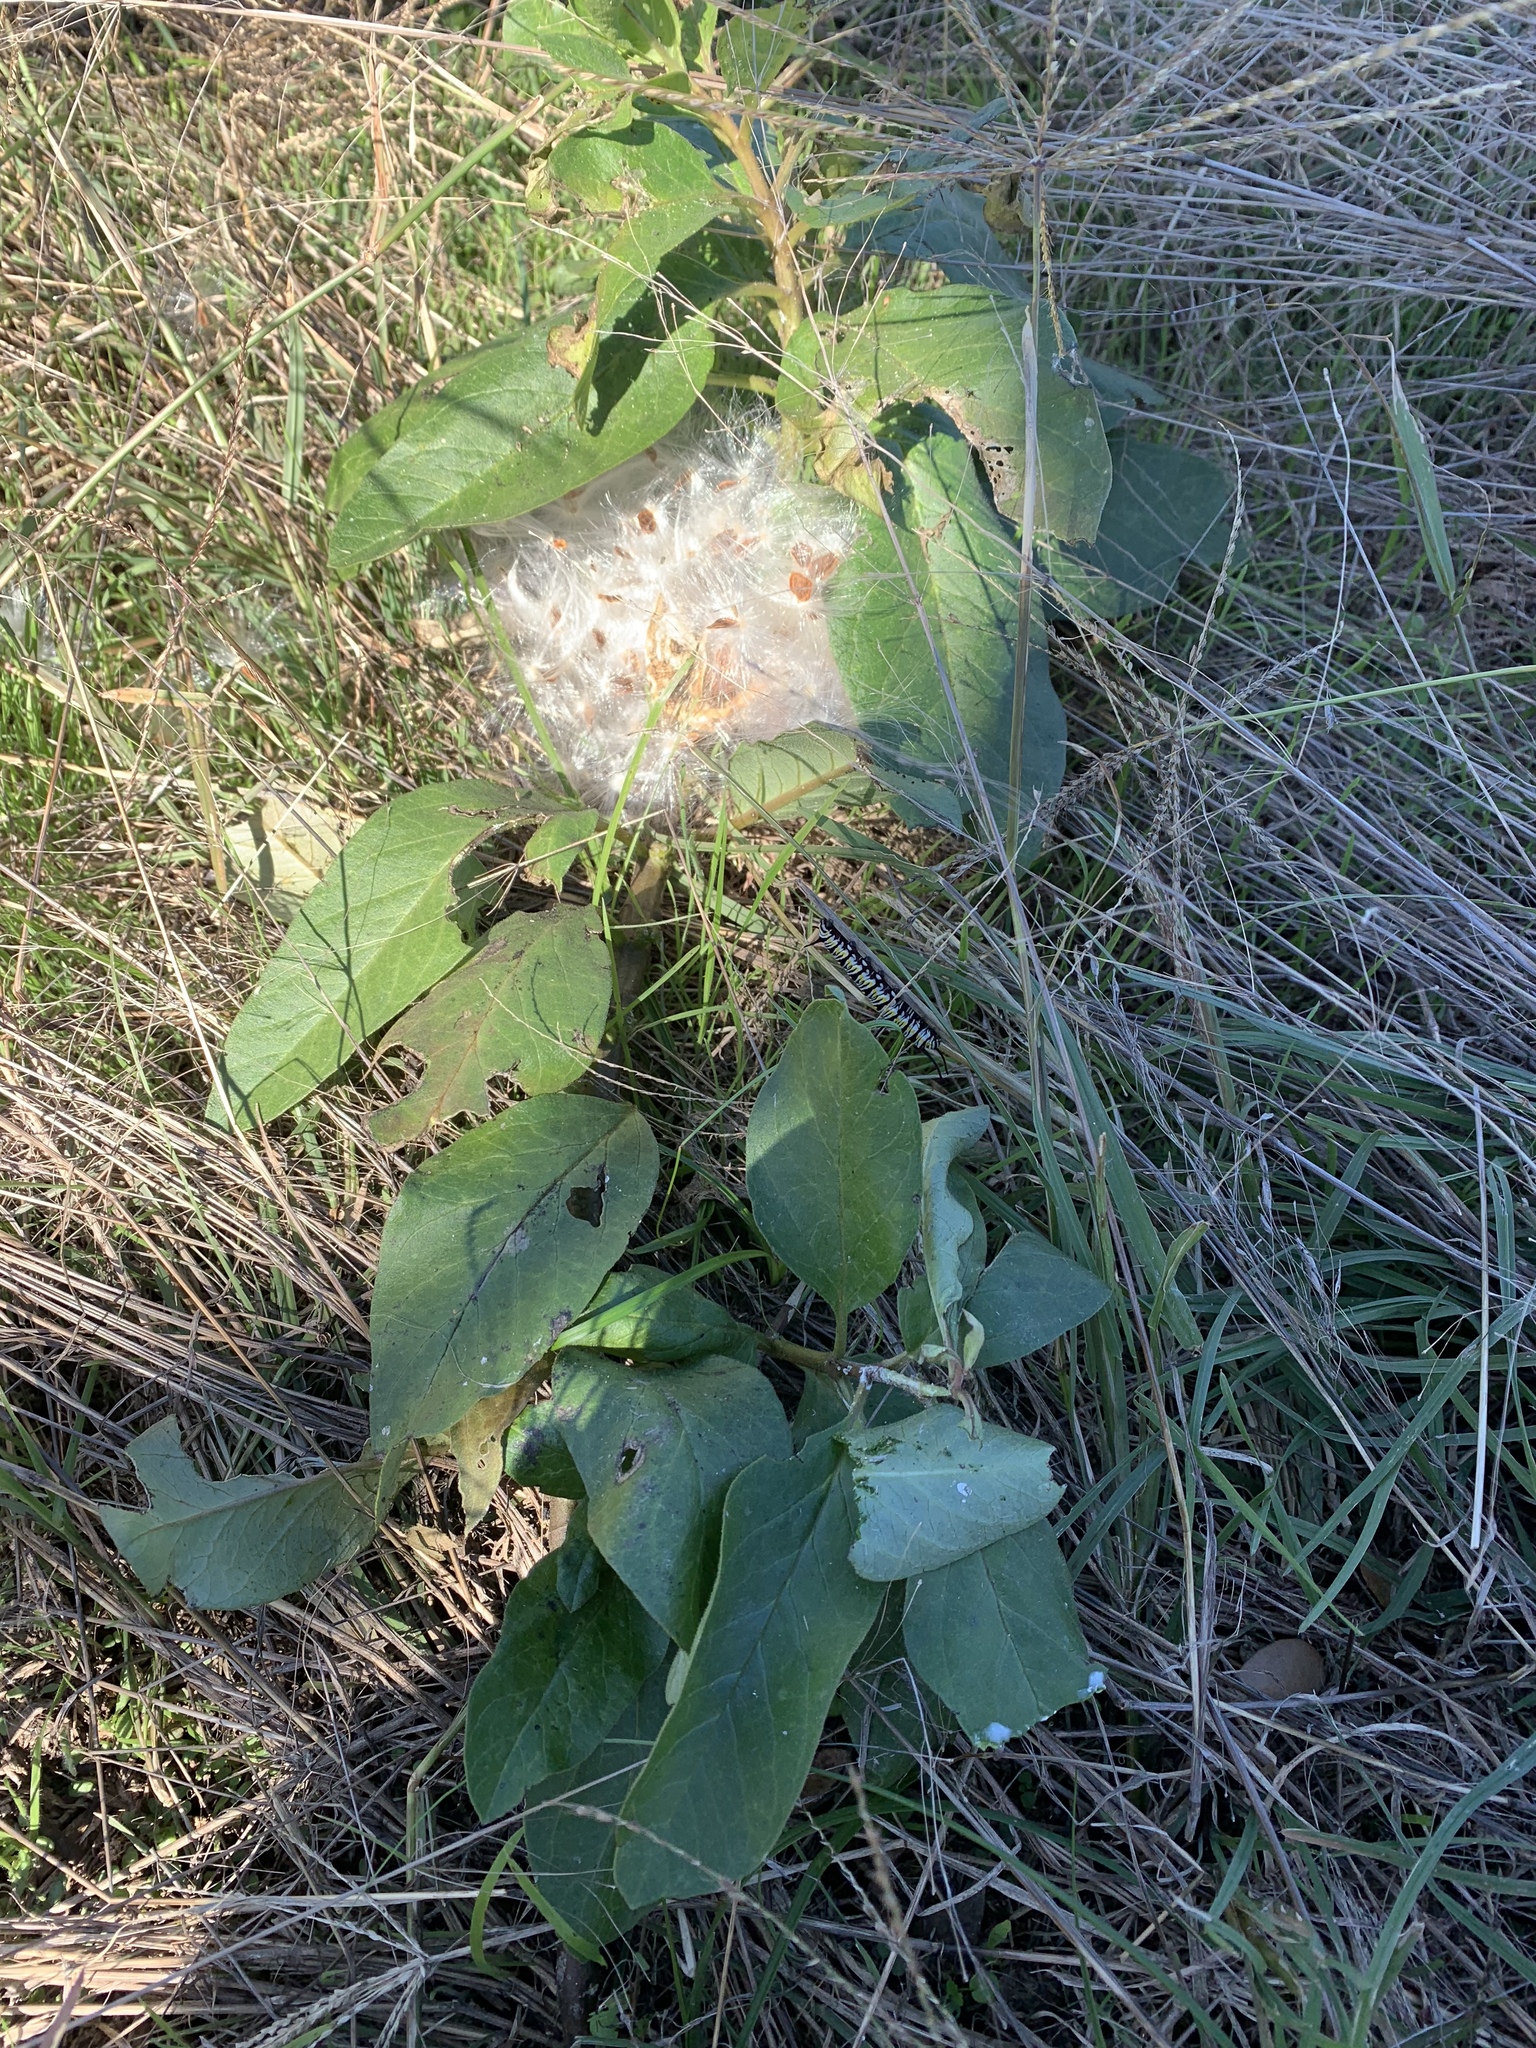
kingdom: Animalia
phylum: Arthropoda
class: Insecta
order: Lepidoptera
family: Nymphalidae
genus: Danaus
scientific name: Danaus gilippus
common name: Queen
